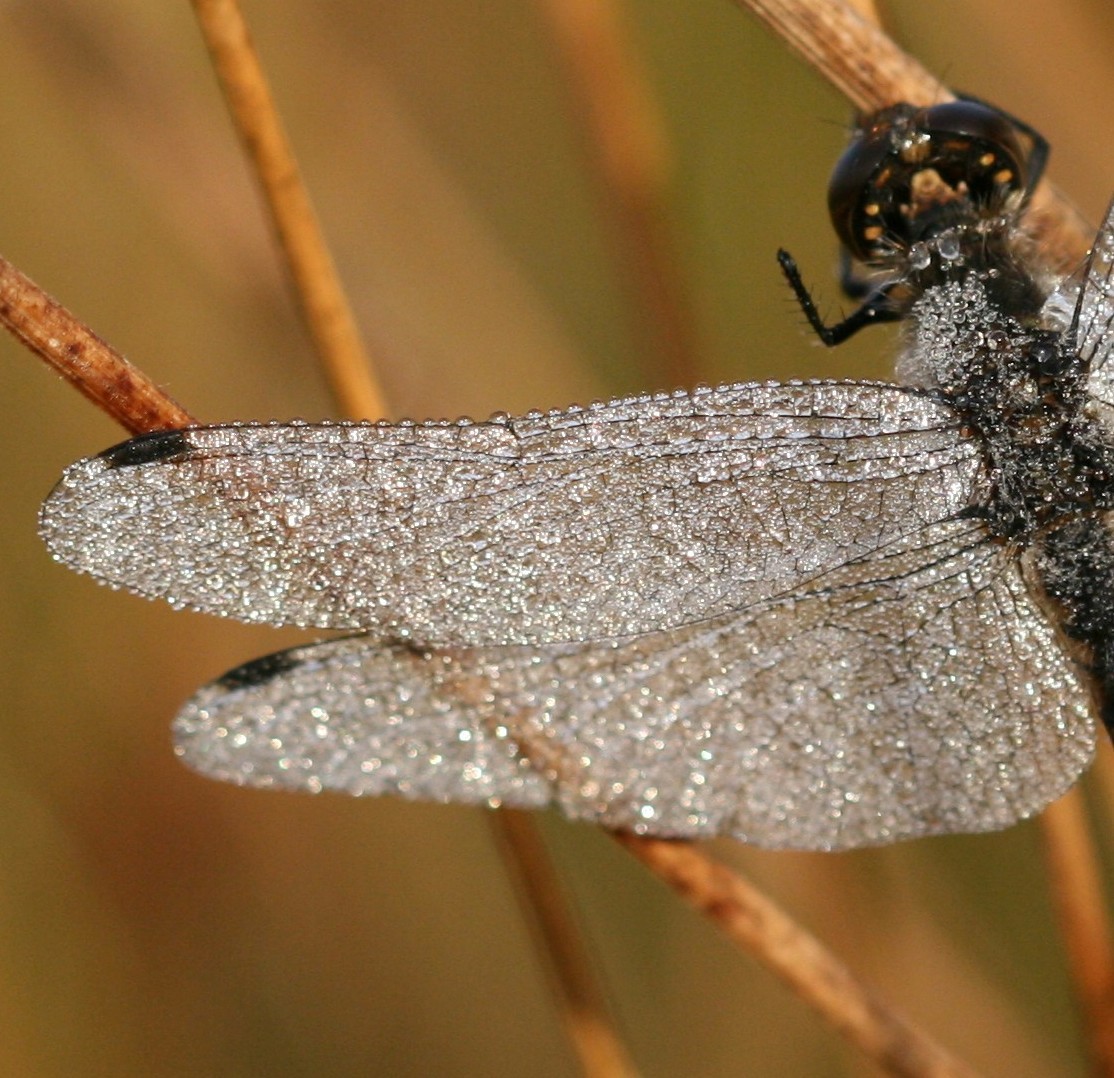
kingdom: Animalia
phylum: Arthropoda
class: Insecta
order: Odonata
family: Libellulidae
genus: Sympetrum
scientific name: Sympetrum danae
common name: Black darter
